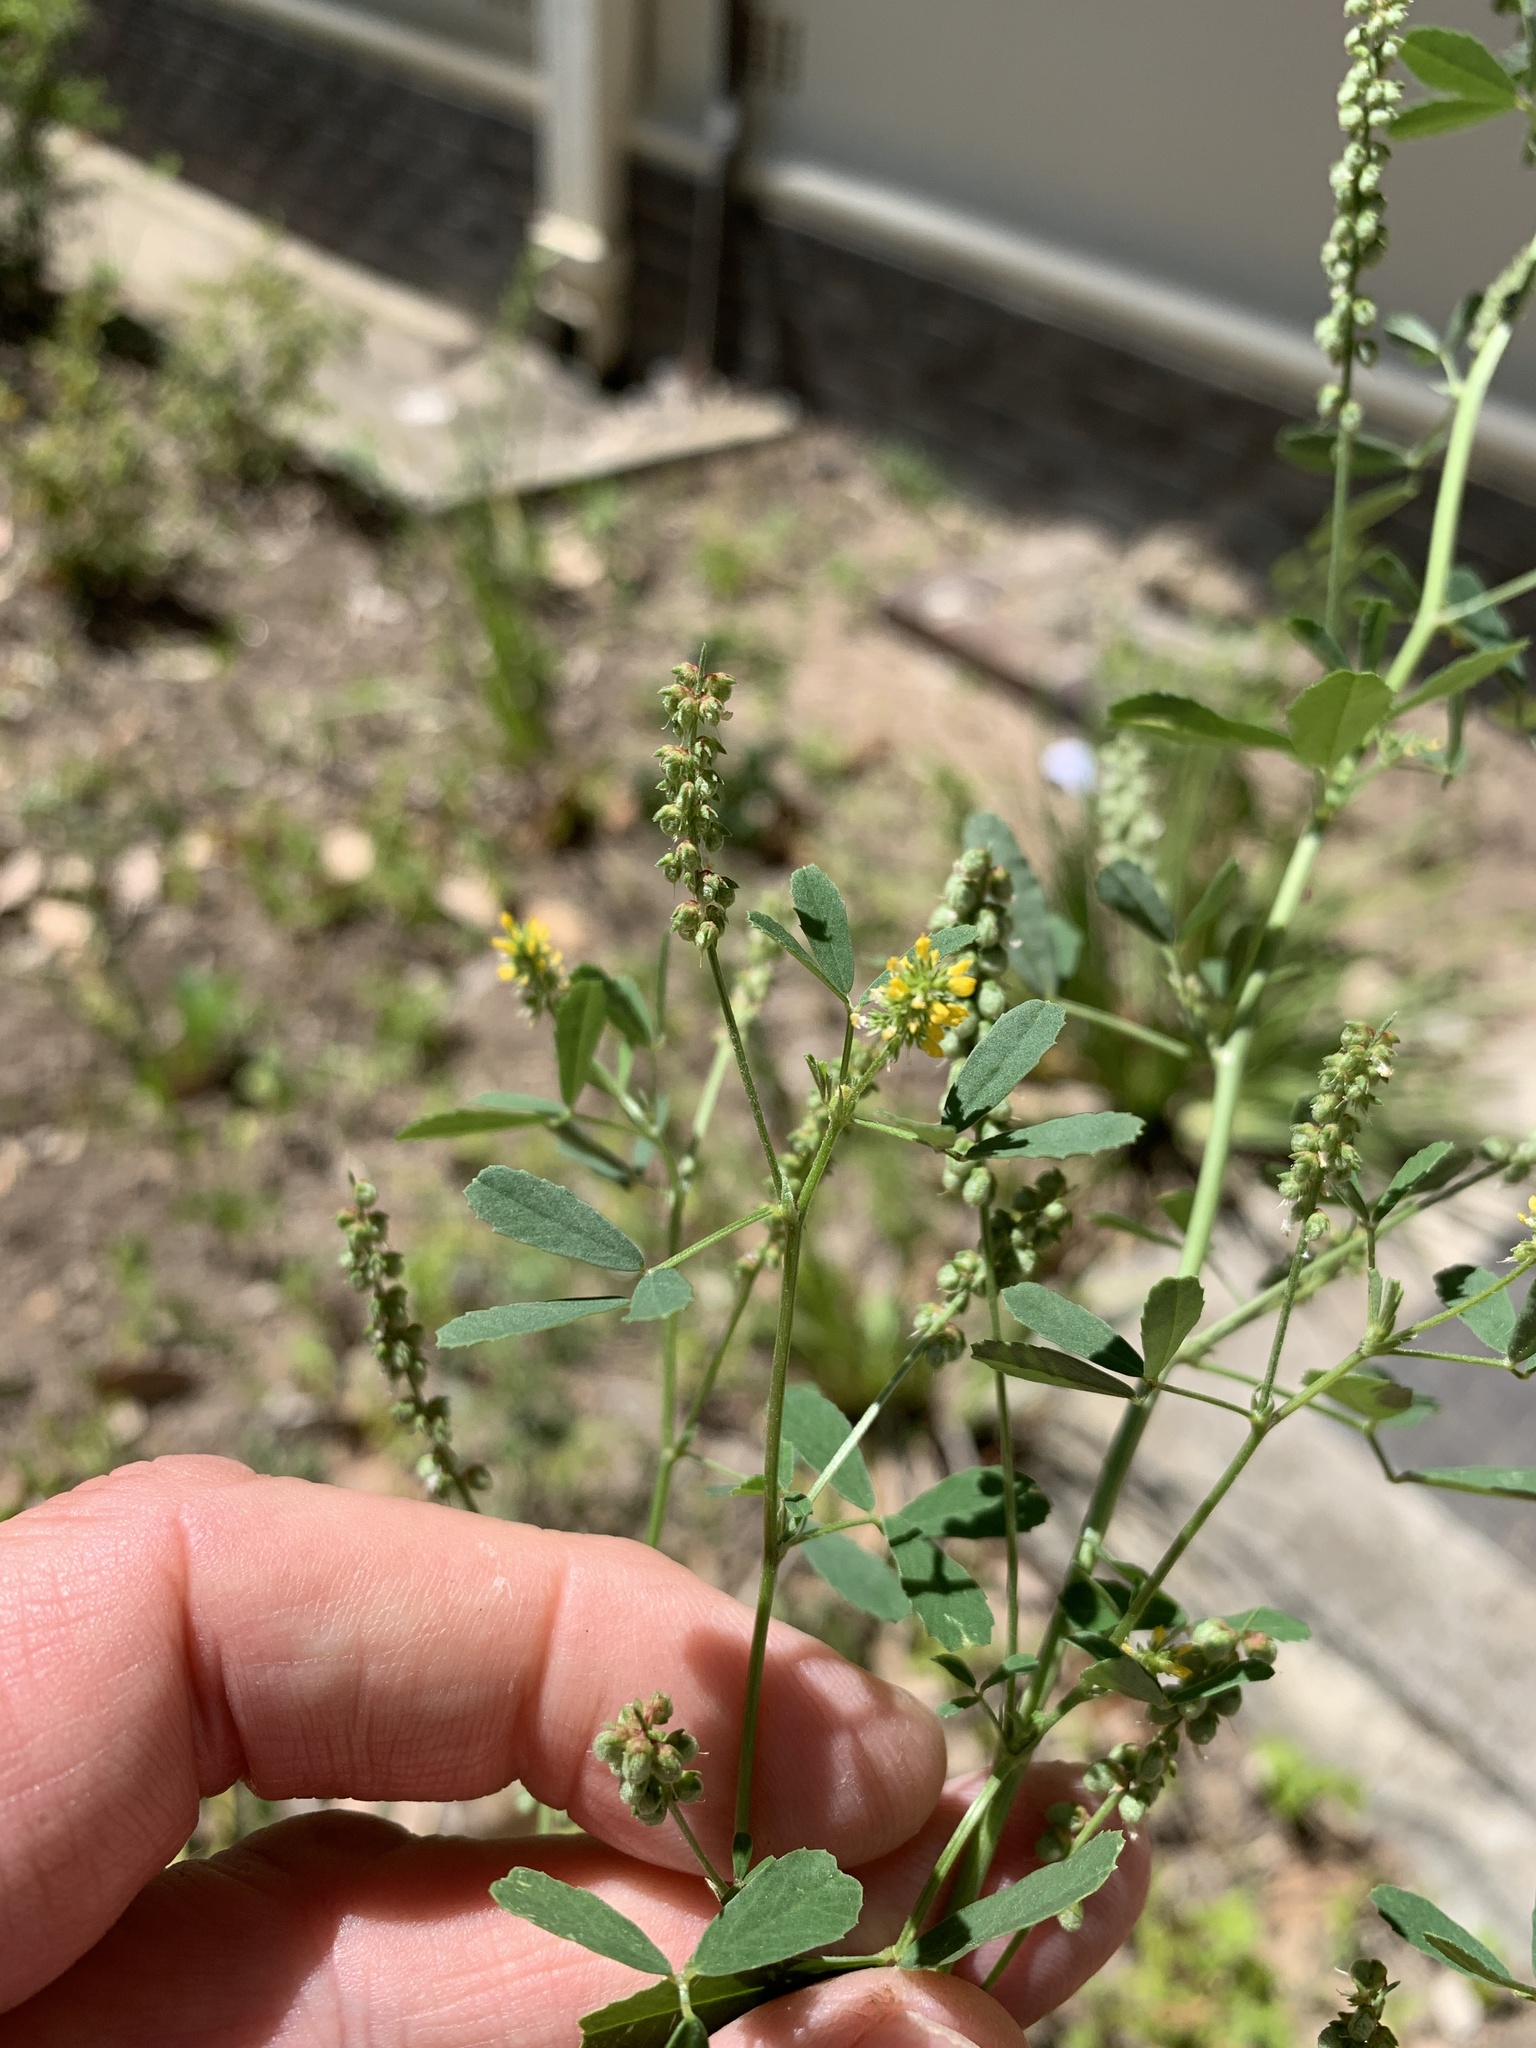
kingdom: Plantae
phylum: Tracheophyta
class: Magnoliopsida
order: Fabales
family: Fabaceae
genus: Melilotus
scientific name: Melilotus indicus
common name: Small melilot
